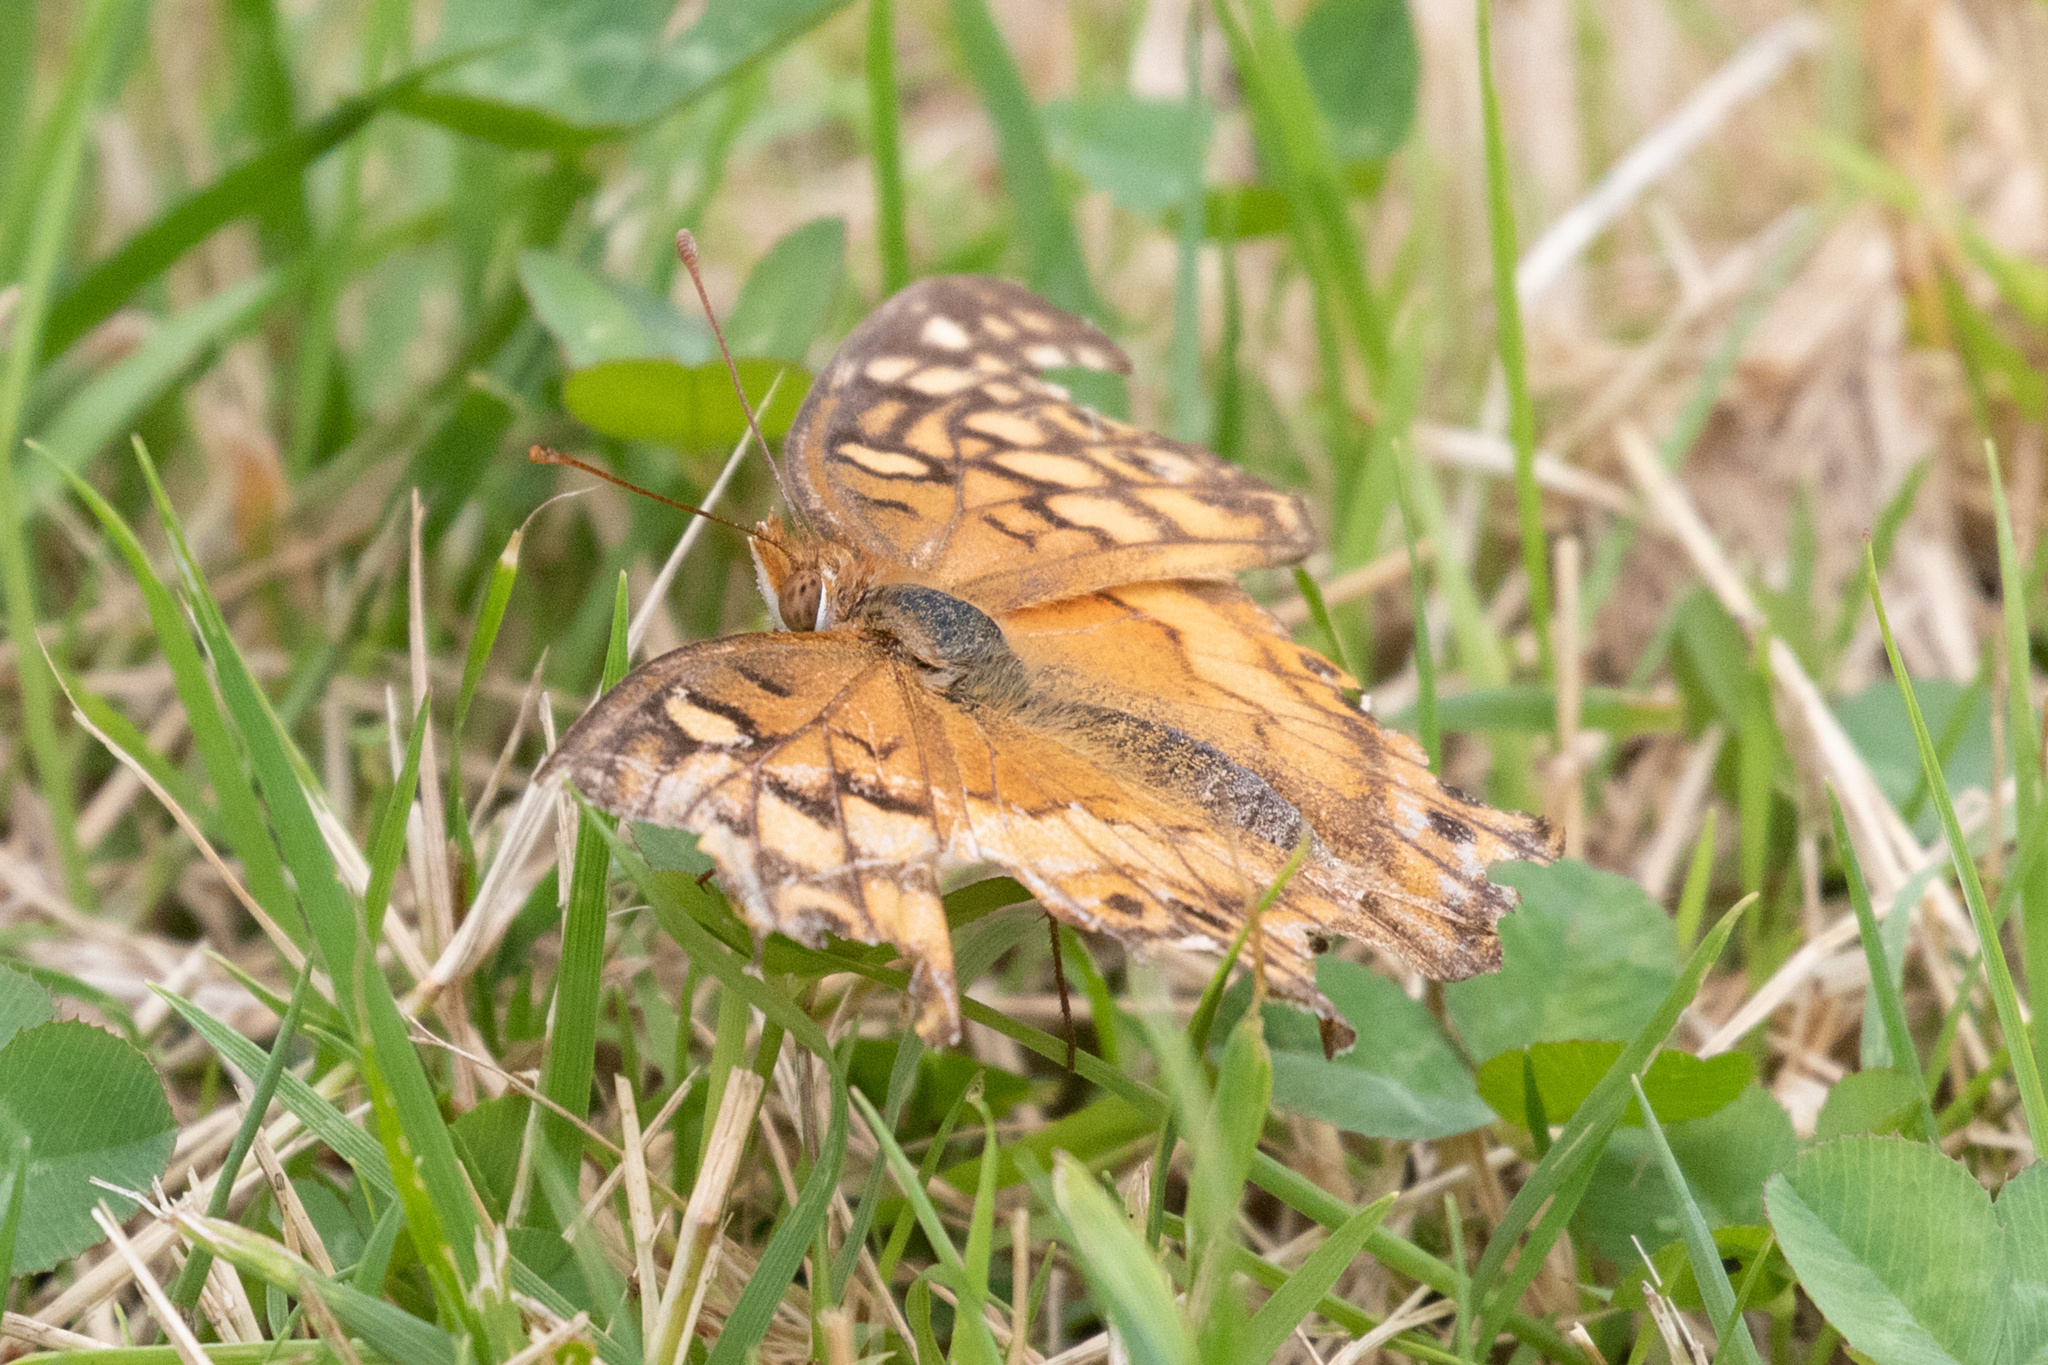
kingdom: Animalia
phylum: Arthropoda
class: Insecta
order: Lepidoptera
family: Nymphalidae
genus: Euptoieta
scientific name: Euptoieta claudia
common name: Variegated fritillary
